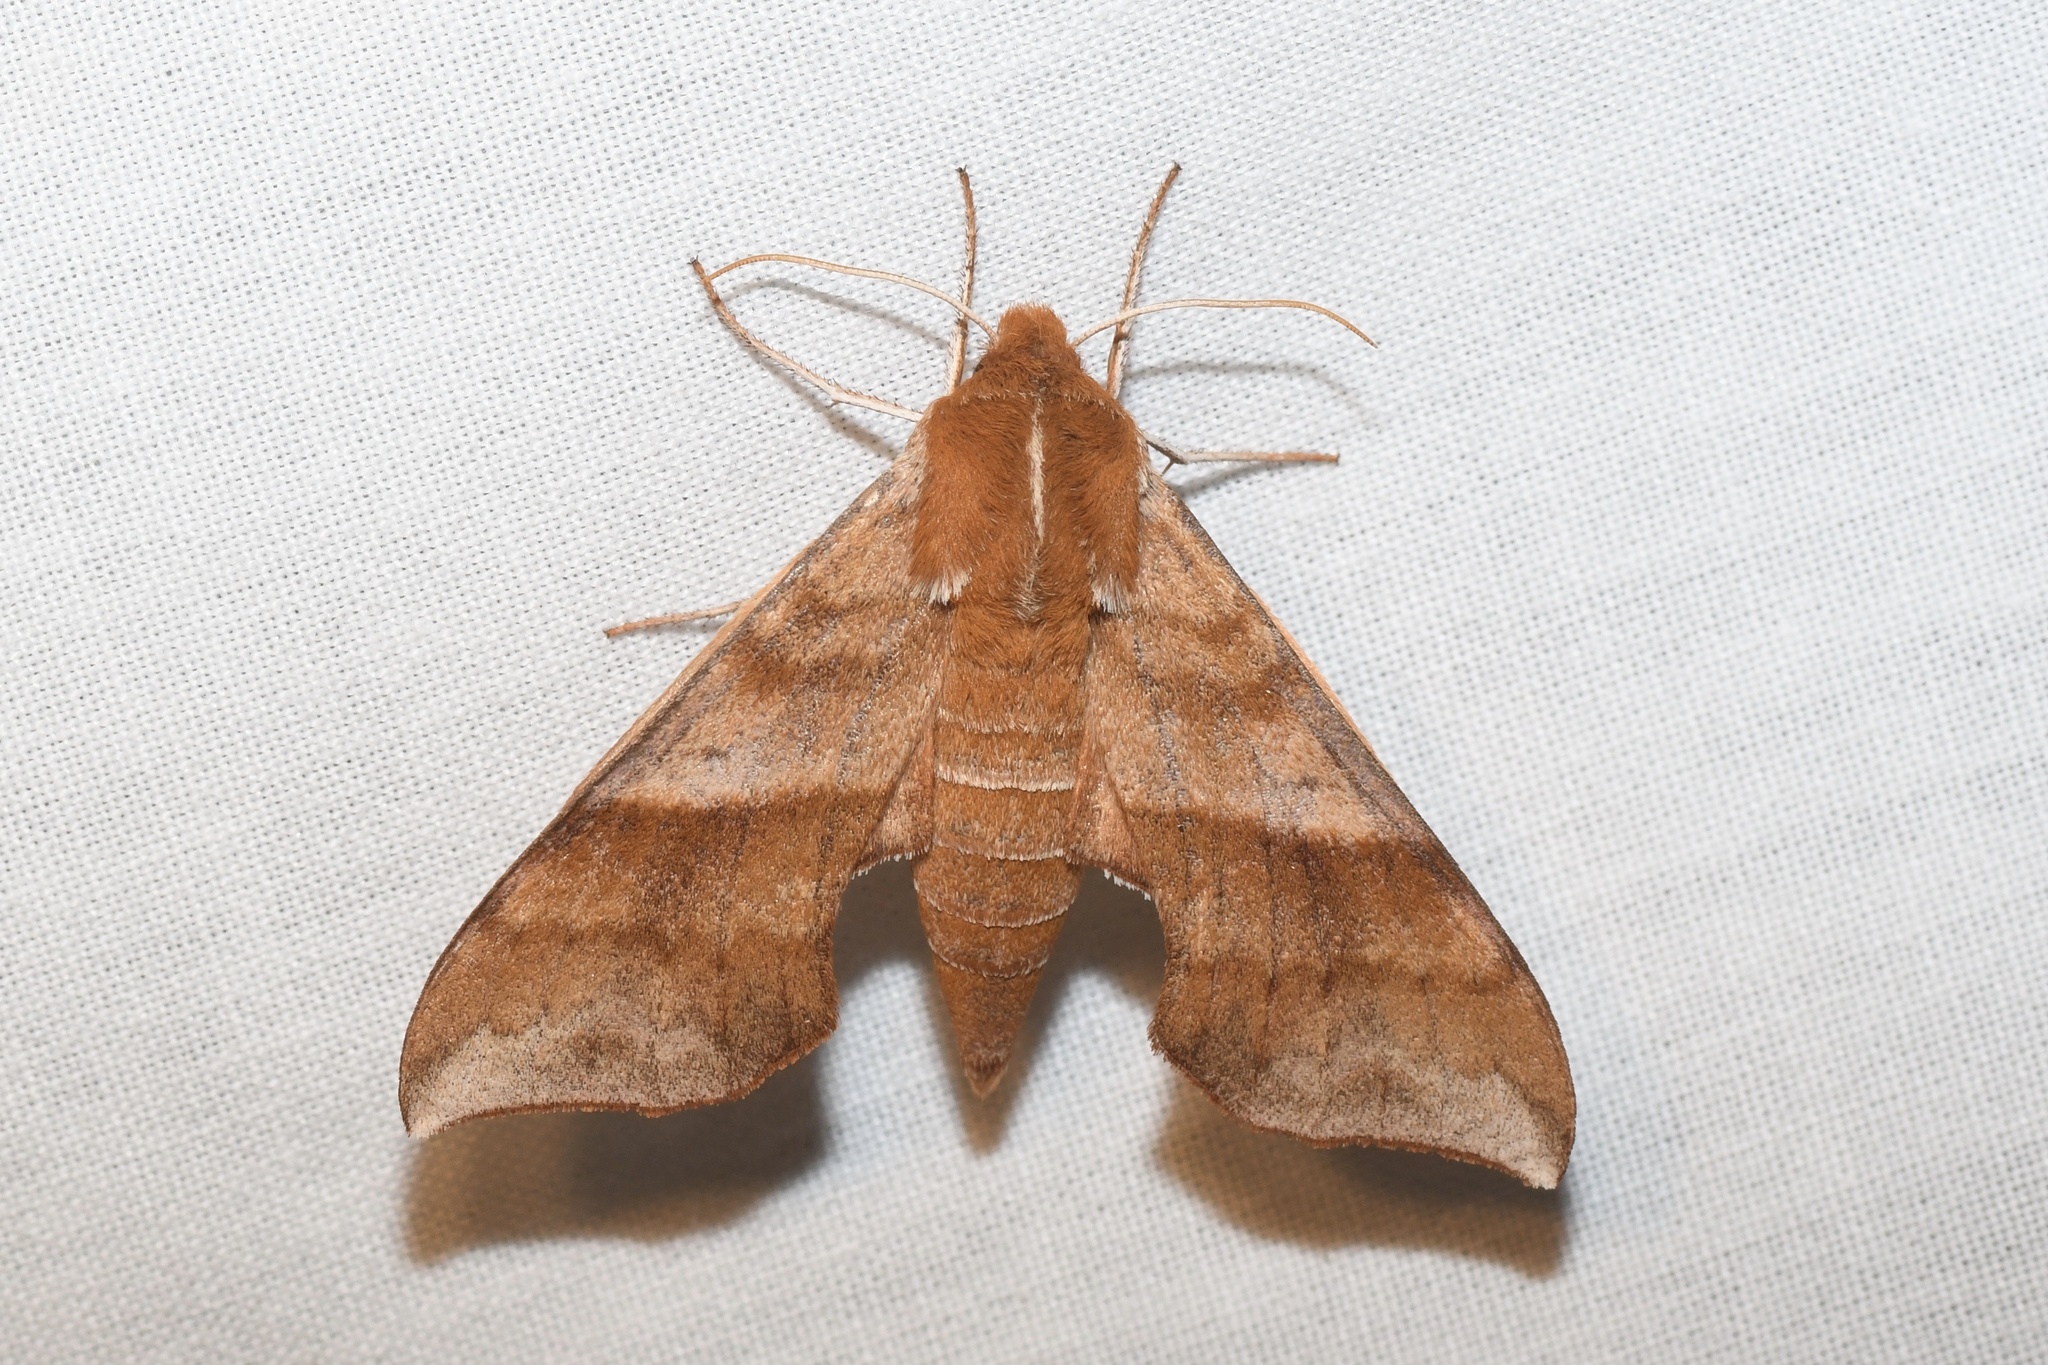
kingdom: Animalia
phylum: Arthropoda
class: Insecta
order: Lepidoptera
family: Sphingidae
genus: Darapsa
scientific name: Darapsa choerilus
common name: Azalea sphinx
